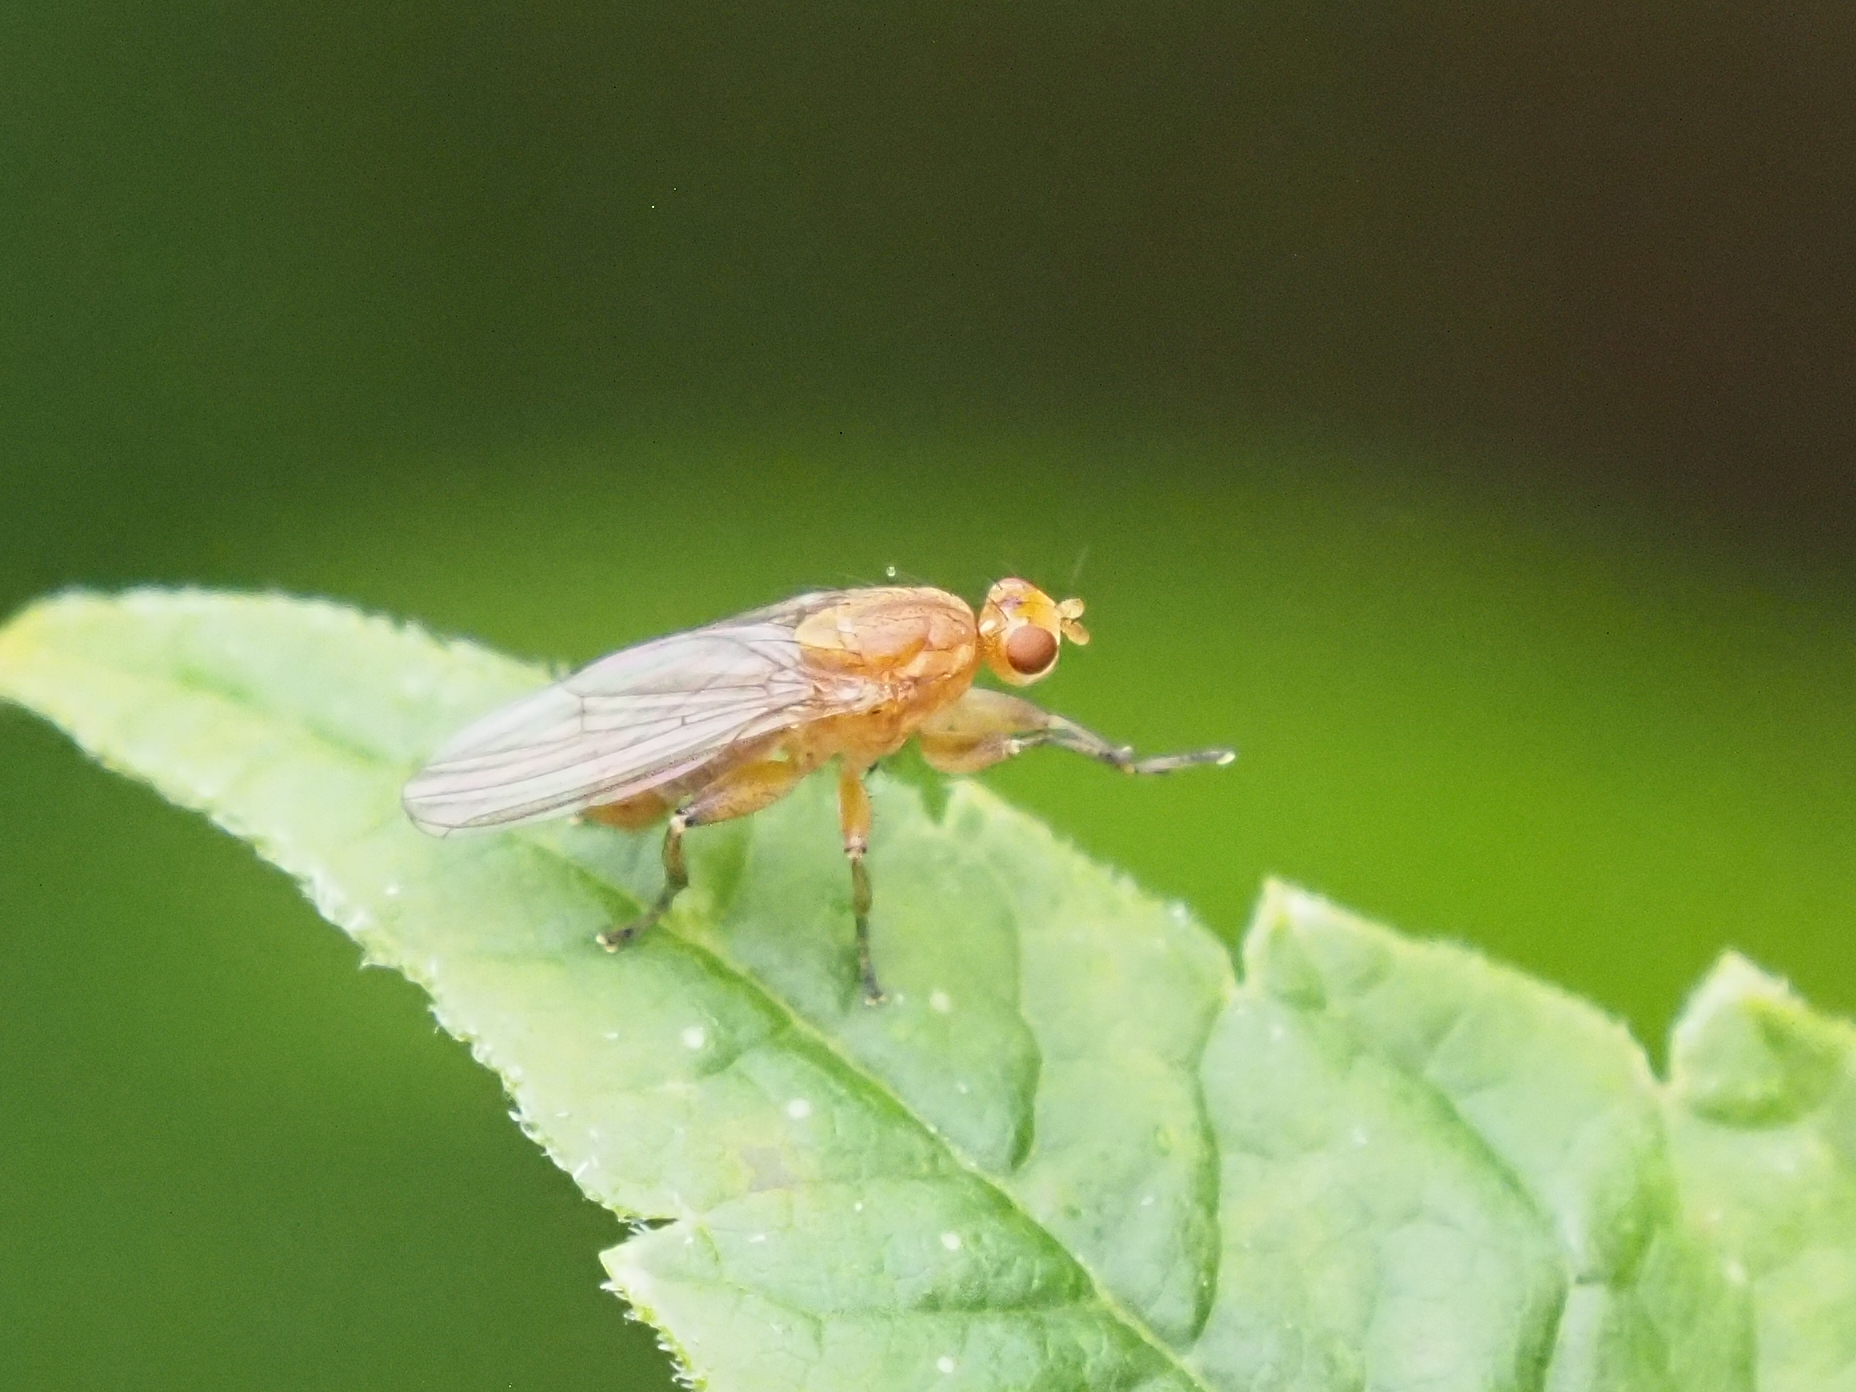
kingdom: Animalia
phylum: Arthropoda
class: Insecta
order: Diptera
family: Heleomyzidae
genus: Suillia
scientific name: Suillia convergens
